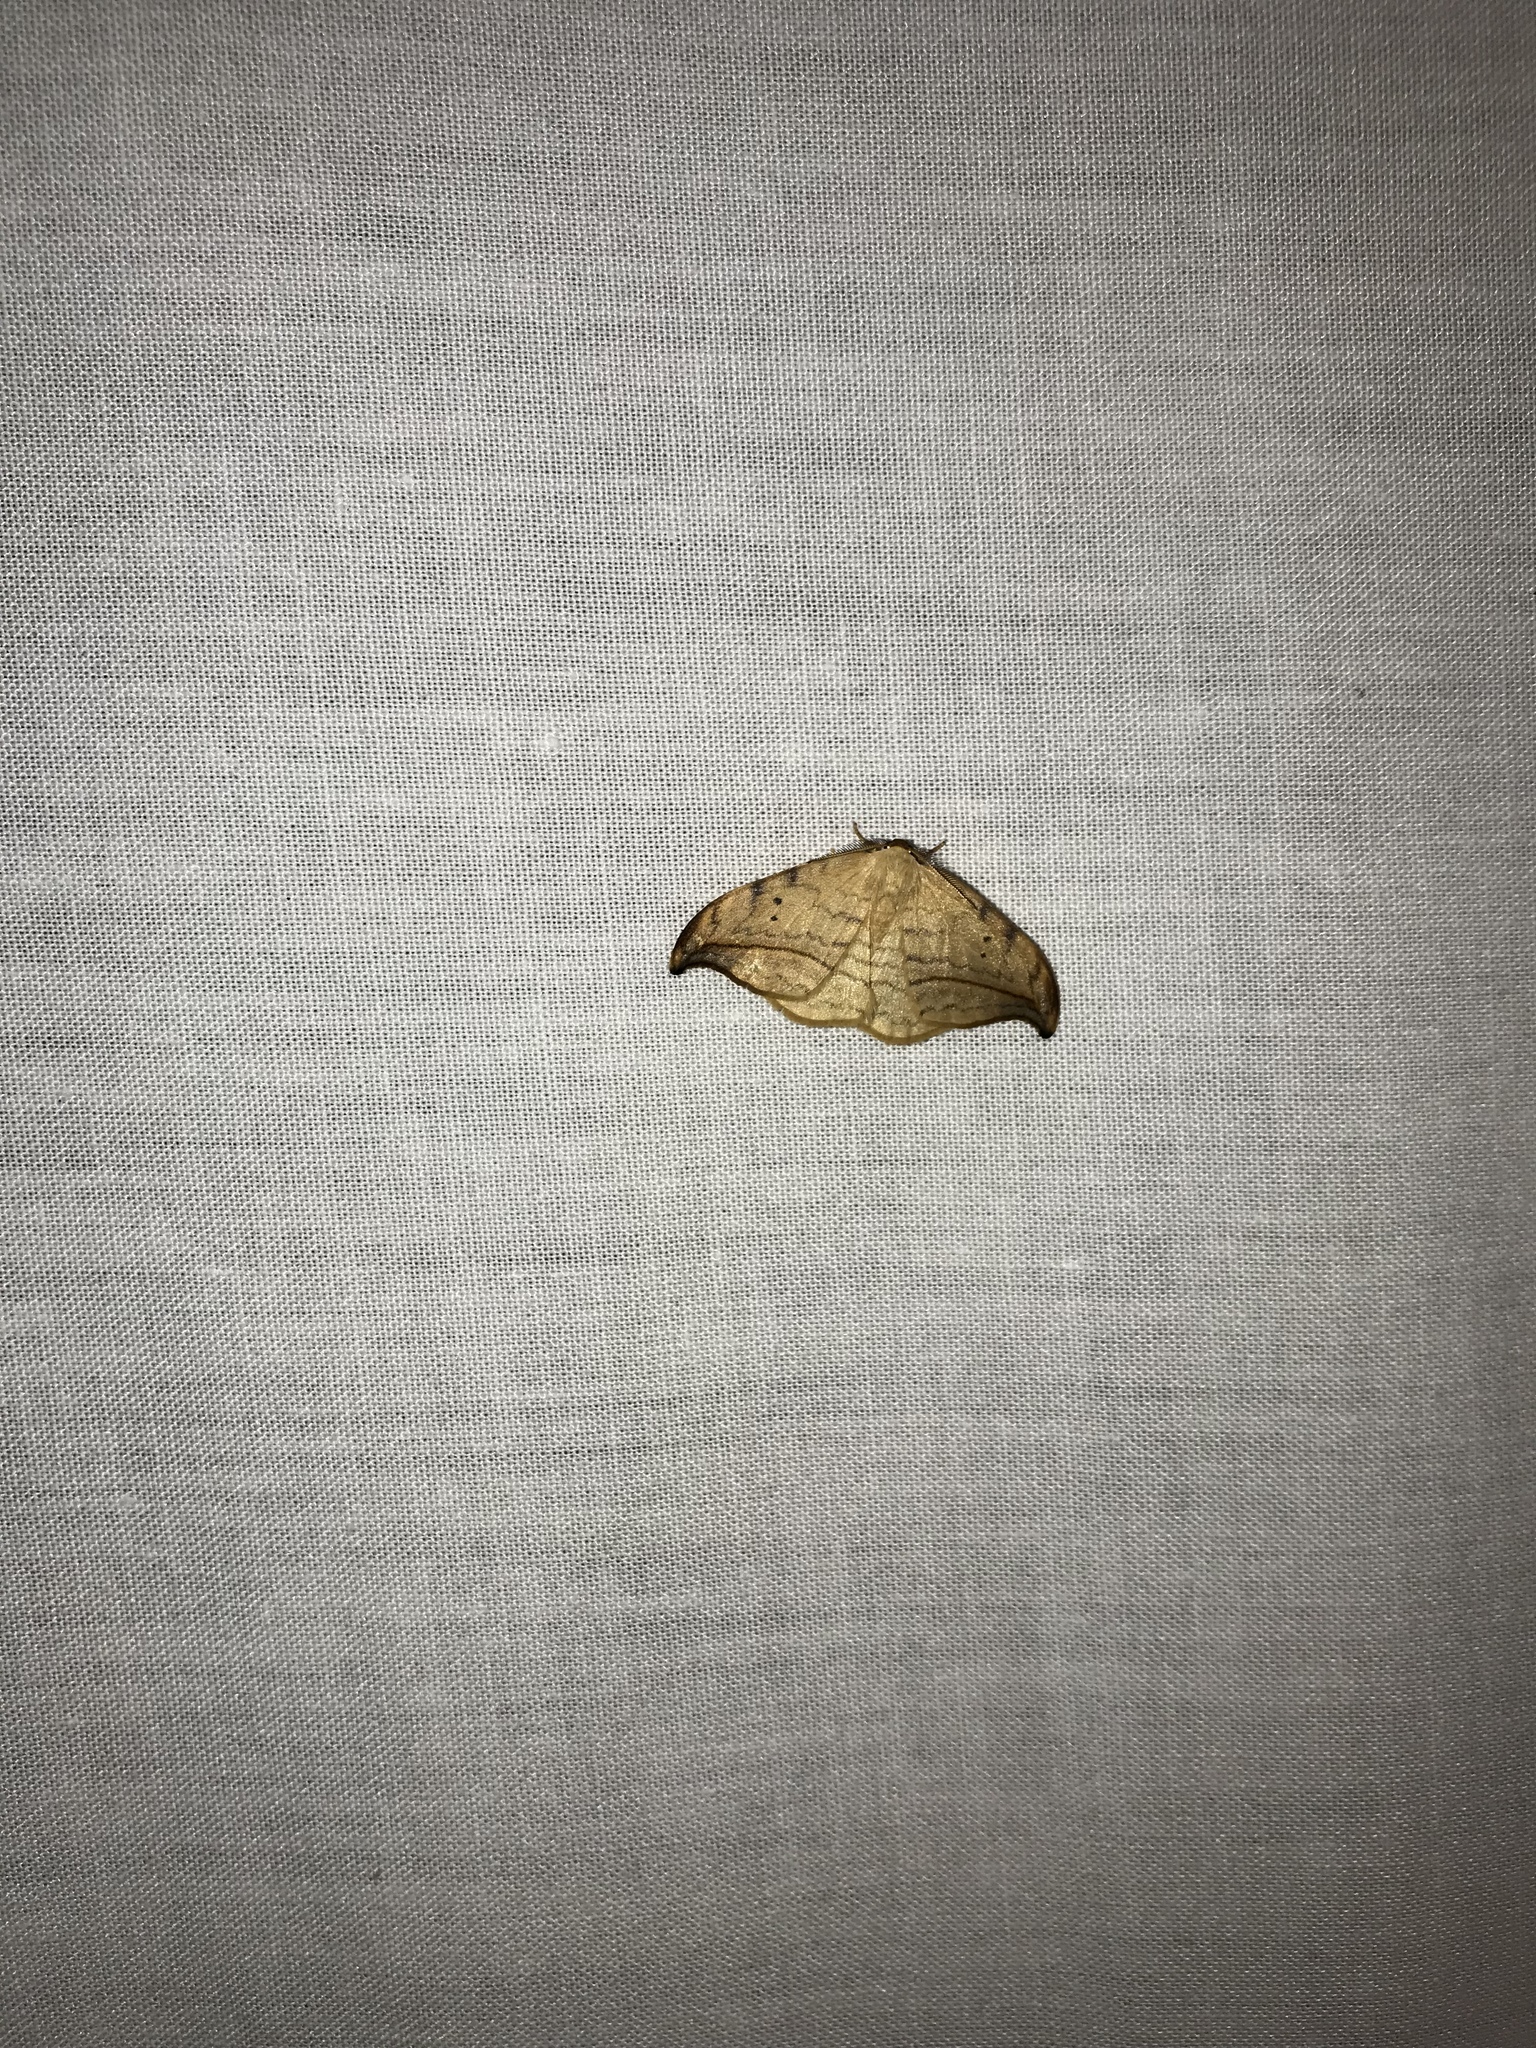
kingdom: Animalia
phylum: Arthropoda
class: Insecta
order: Lepidoptera
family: Drepanidae
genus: Drepana
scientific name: Drepana arcuata
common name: Arched hooktip moth
